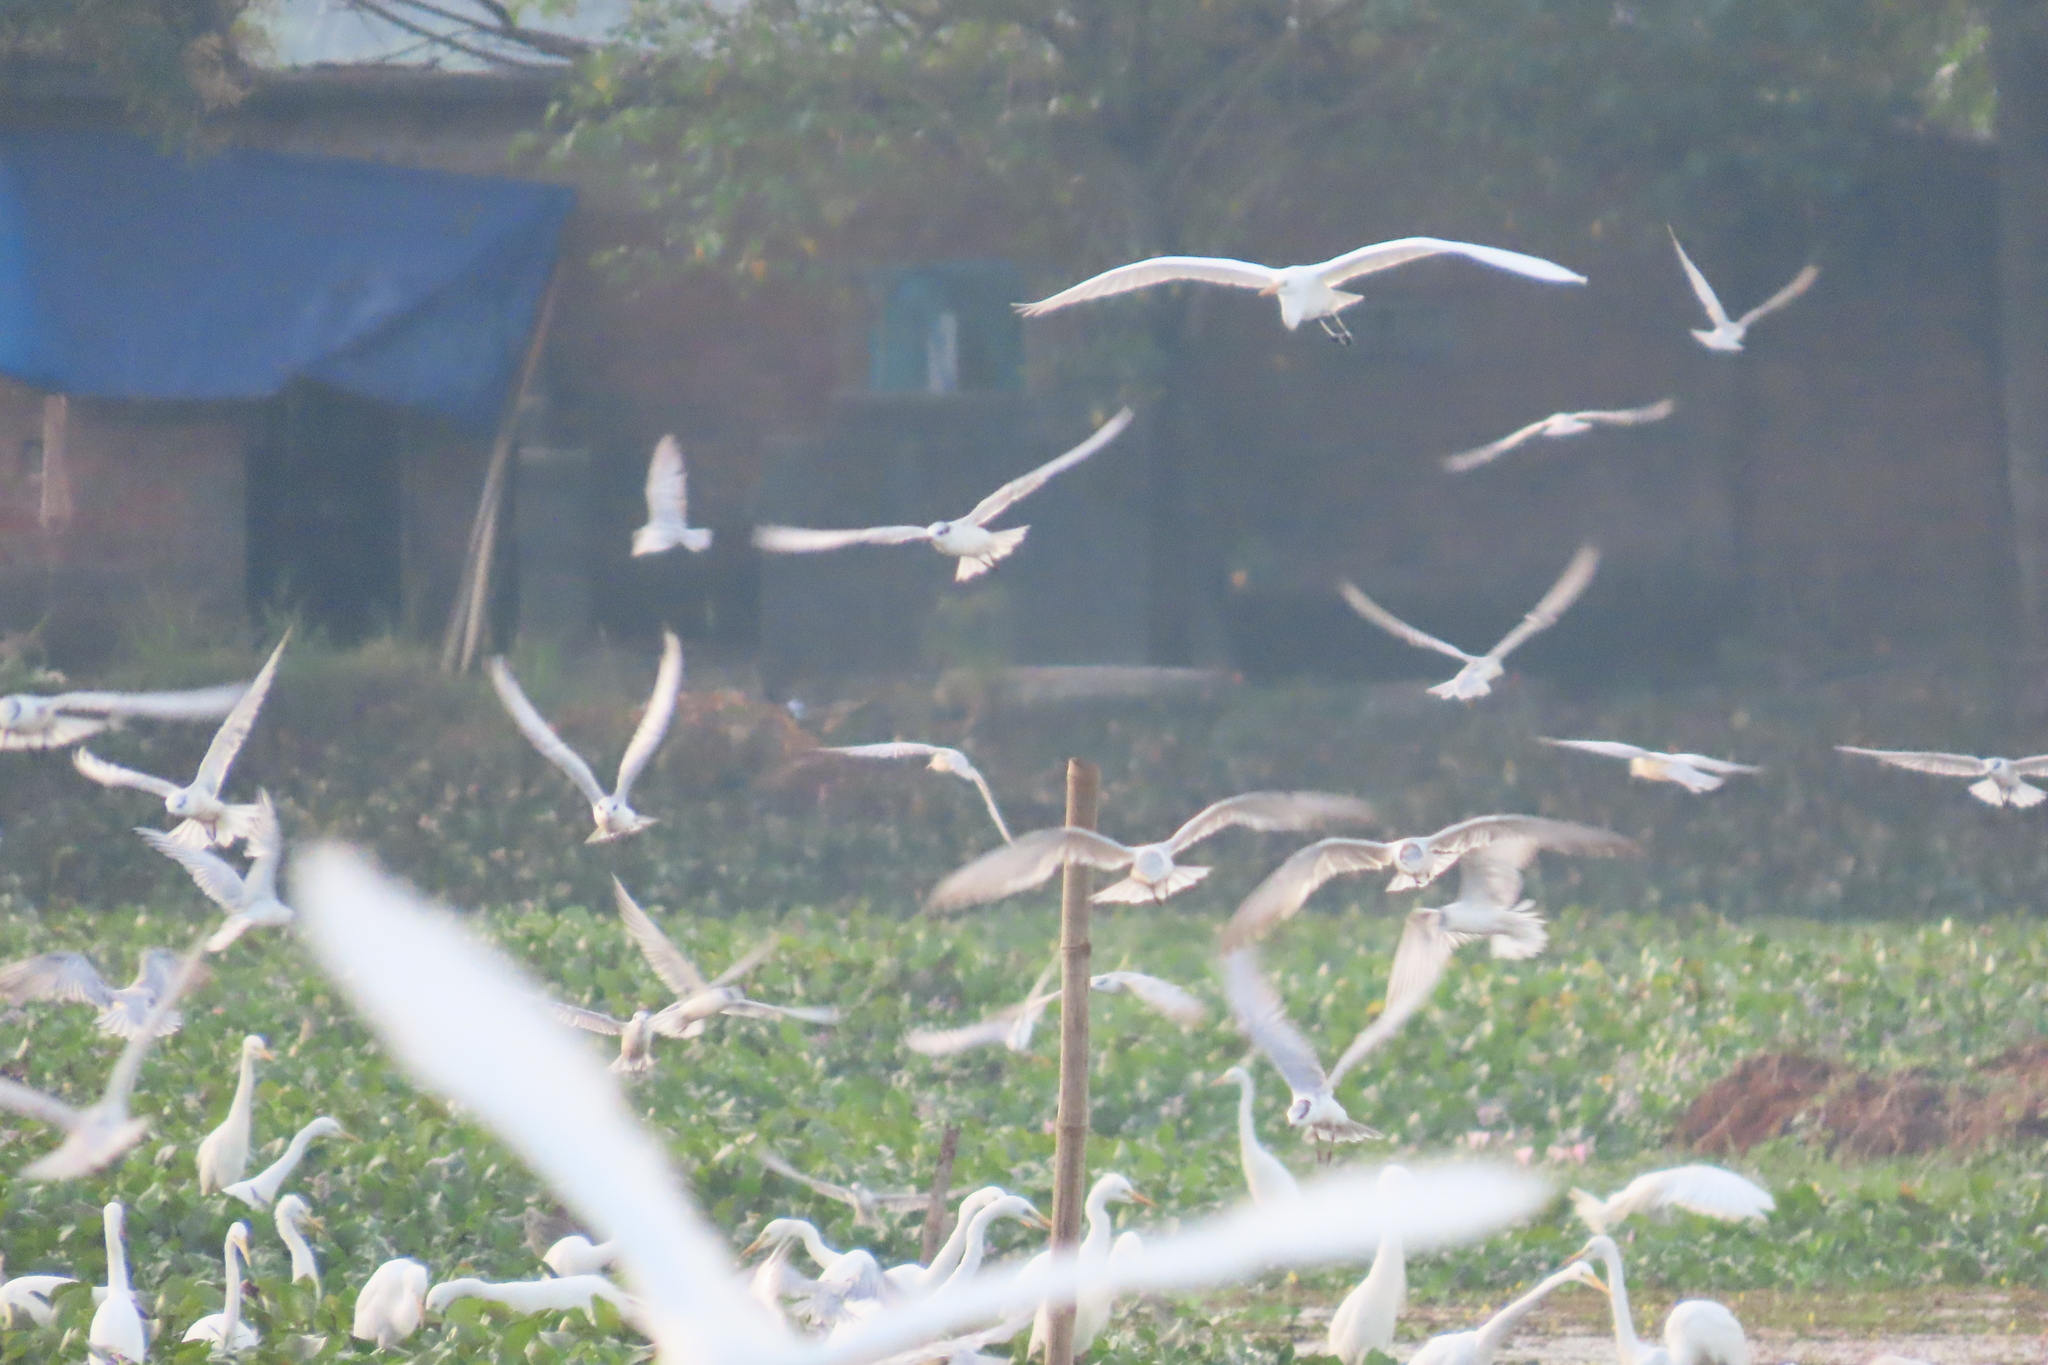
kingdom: Animalia
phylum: Chordata
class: Aves
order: Pelecaniformes
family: Ardeidae
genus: Egretta
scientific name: Egretta intermedia
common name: Intermediate egret
